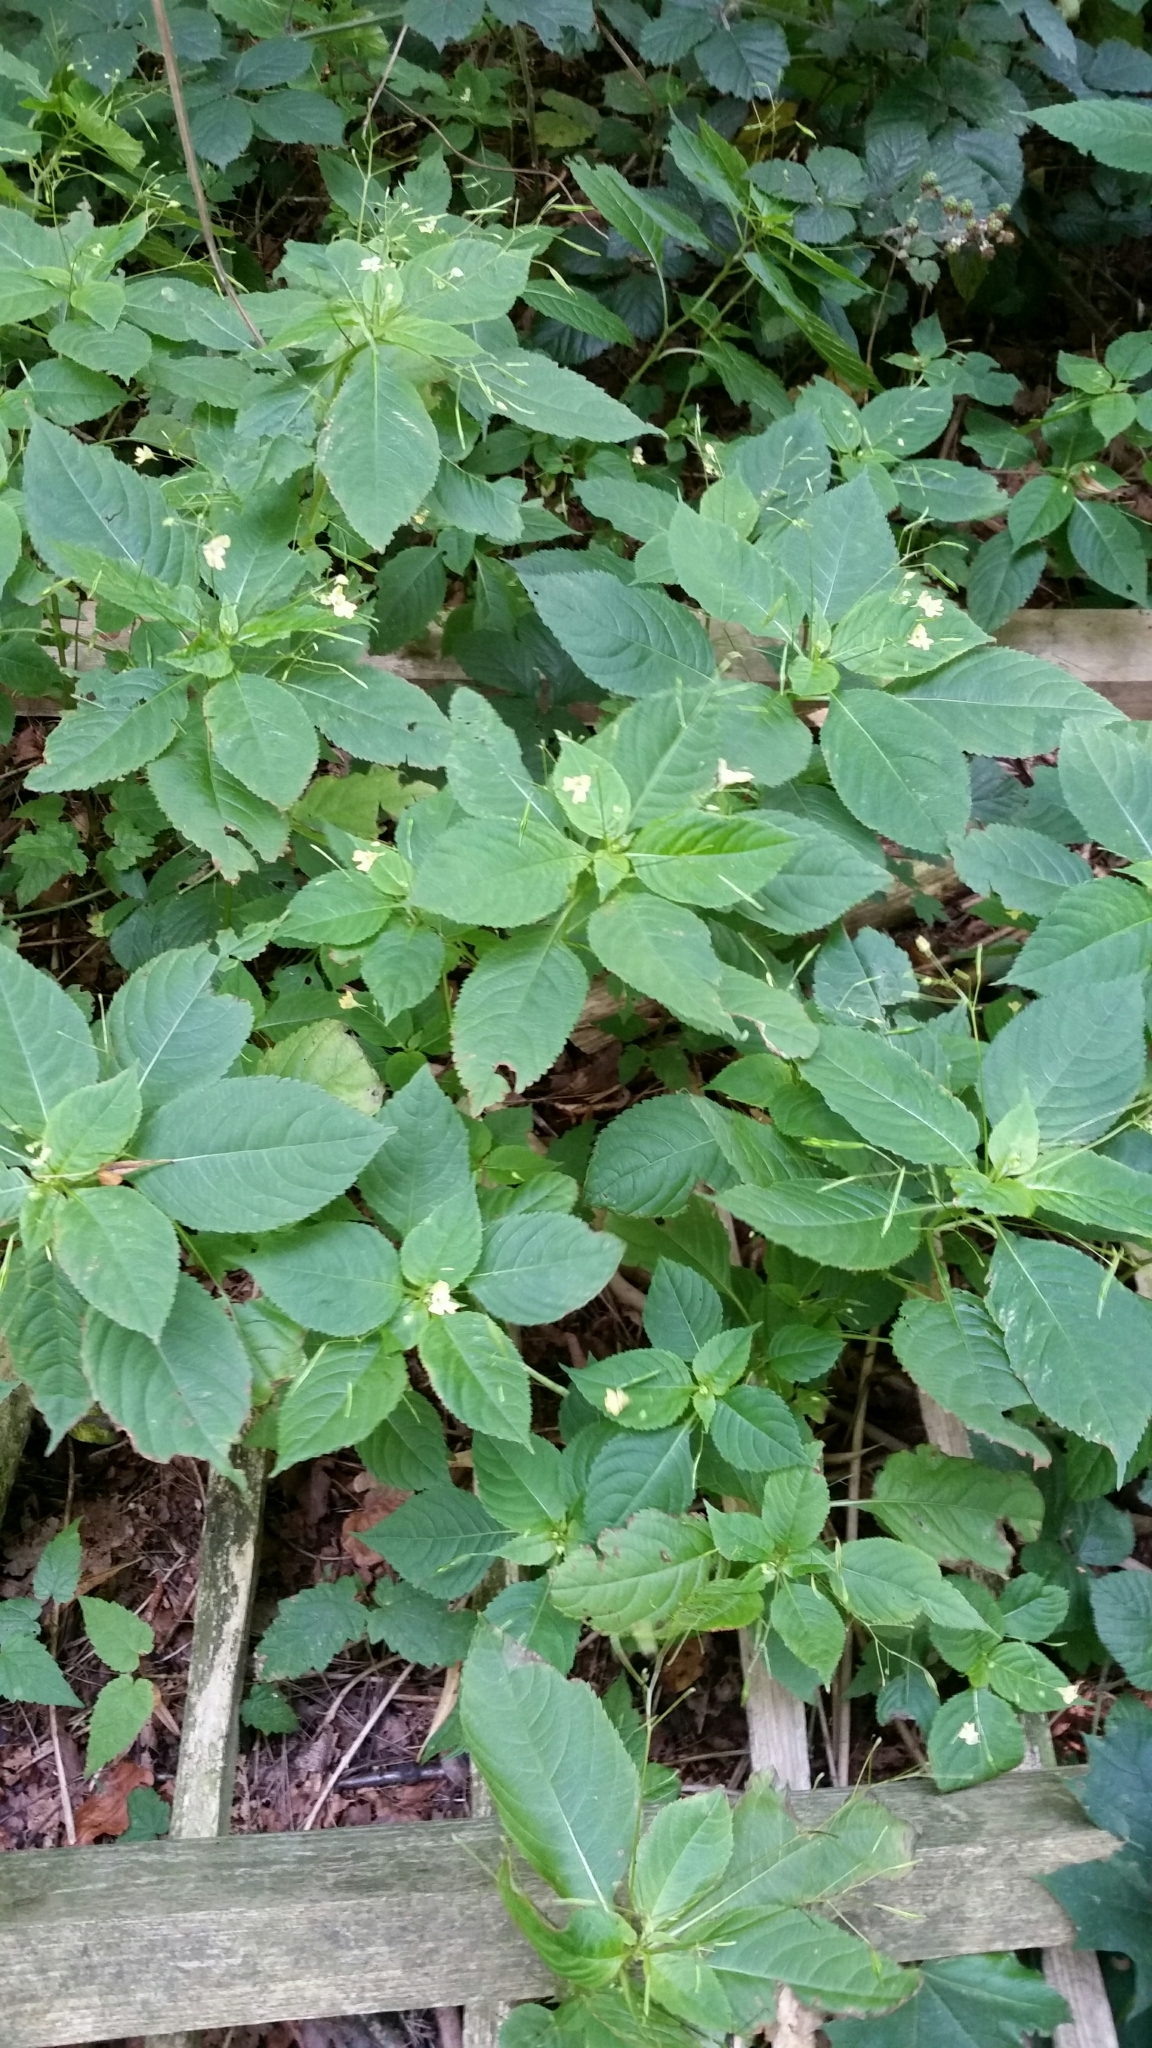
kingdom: Plantae
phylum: Tracheophyta
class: Magnoliopsida
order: Ericales
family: Balsaminaceae
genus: Impatiens
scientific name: Impatiens parviflora
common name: Small balsam
